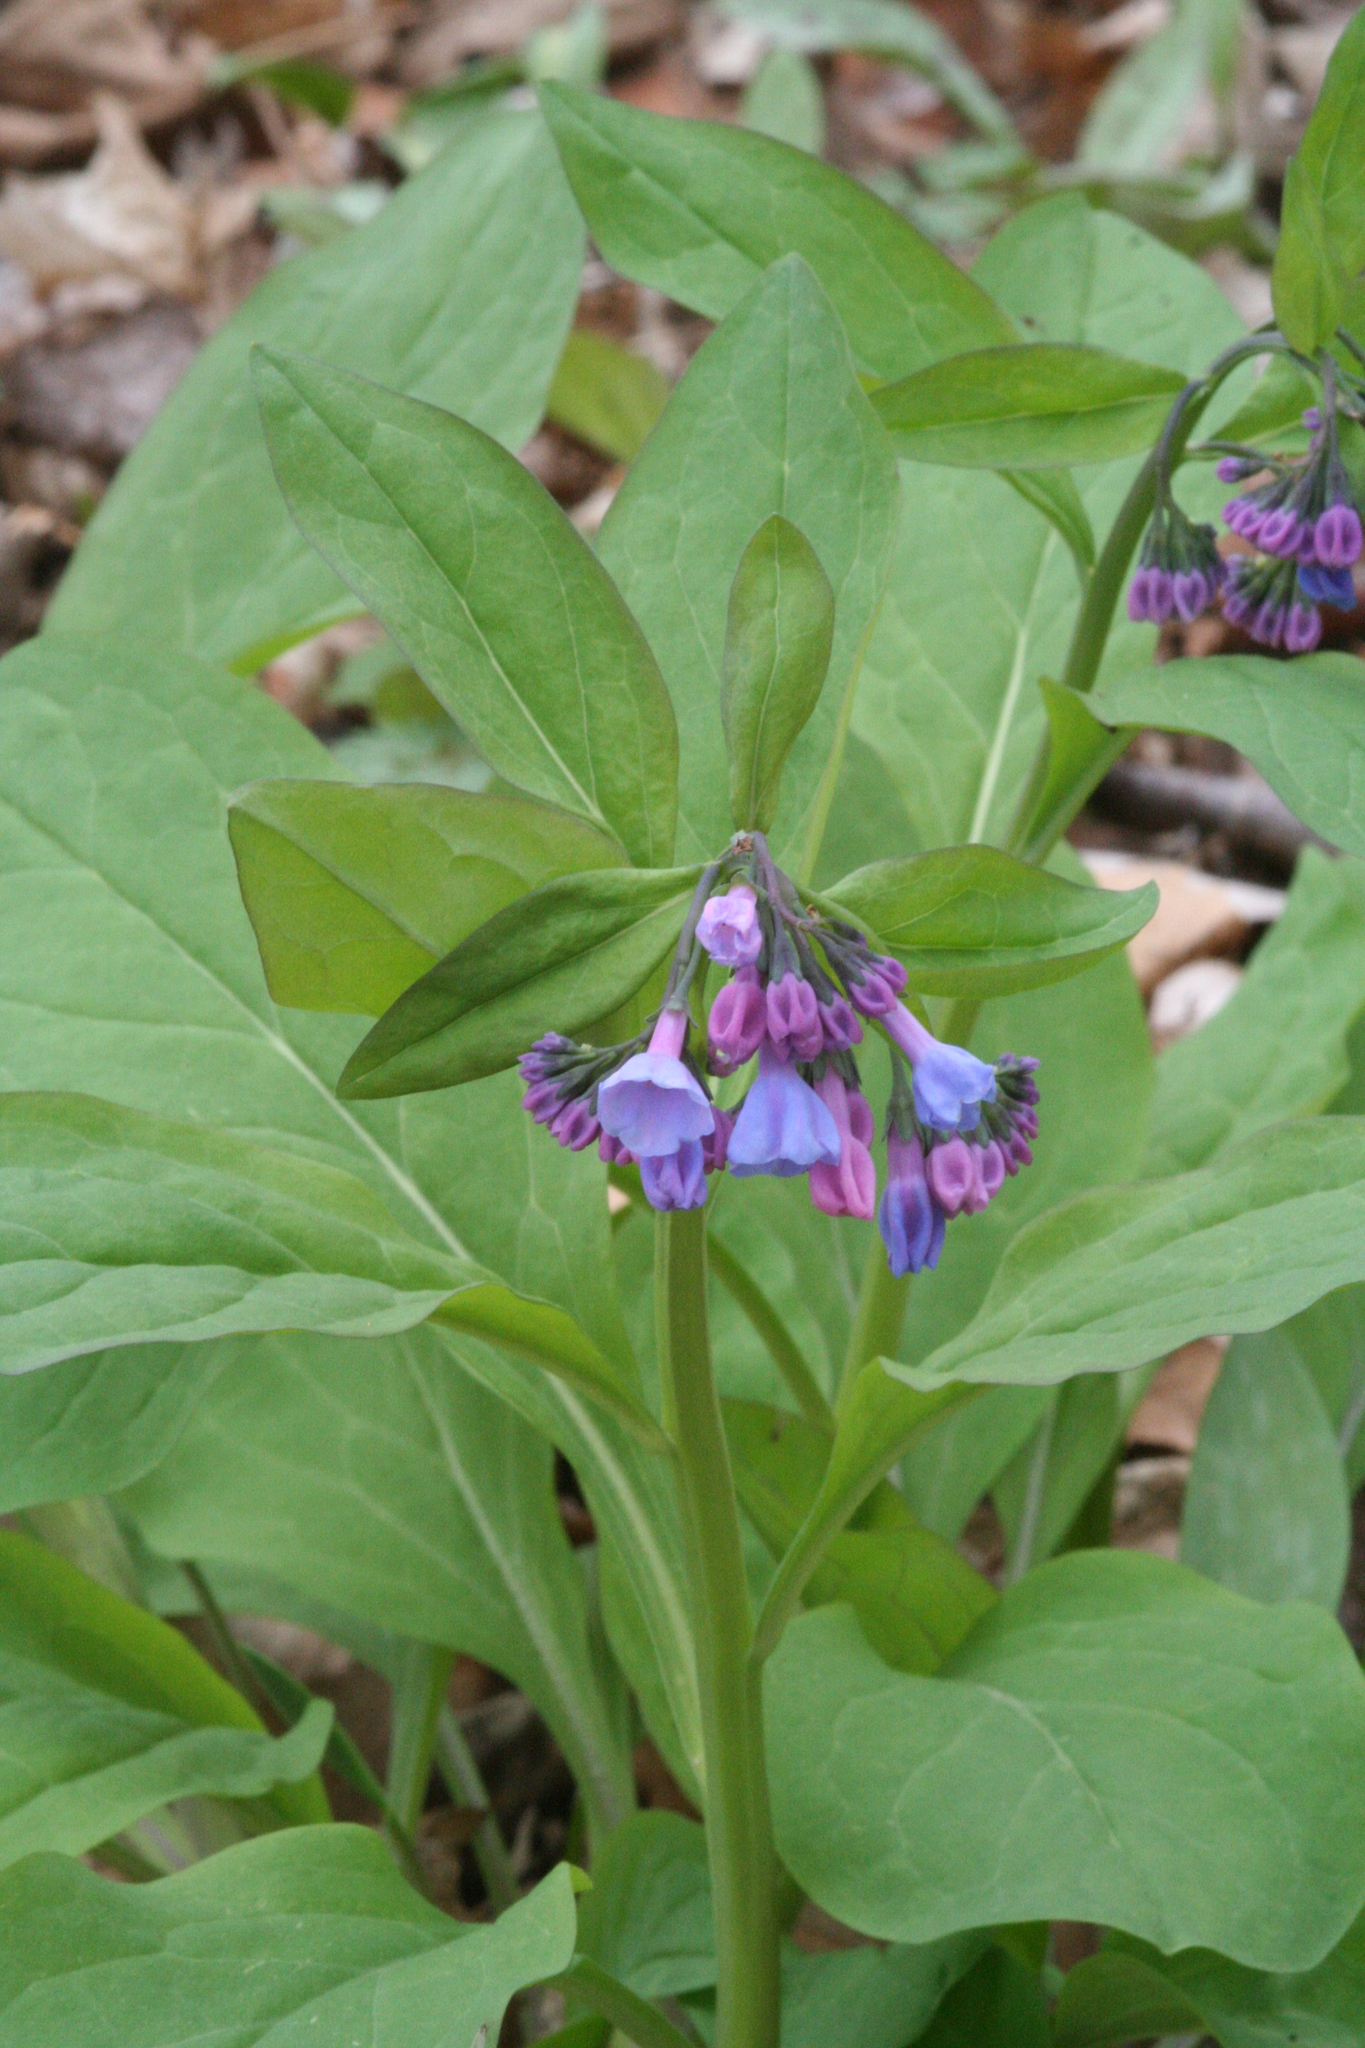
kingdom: Plantae
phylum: Tracheophyta
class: Magnoliopsida
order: Boraginales
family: Boraginaceae
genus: Mertensia
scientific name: Mertensia virginica
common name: Virginia bluebells
